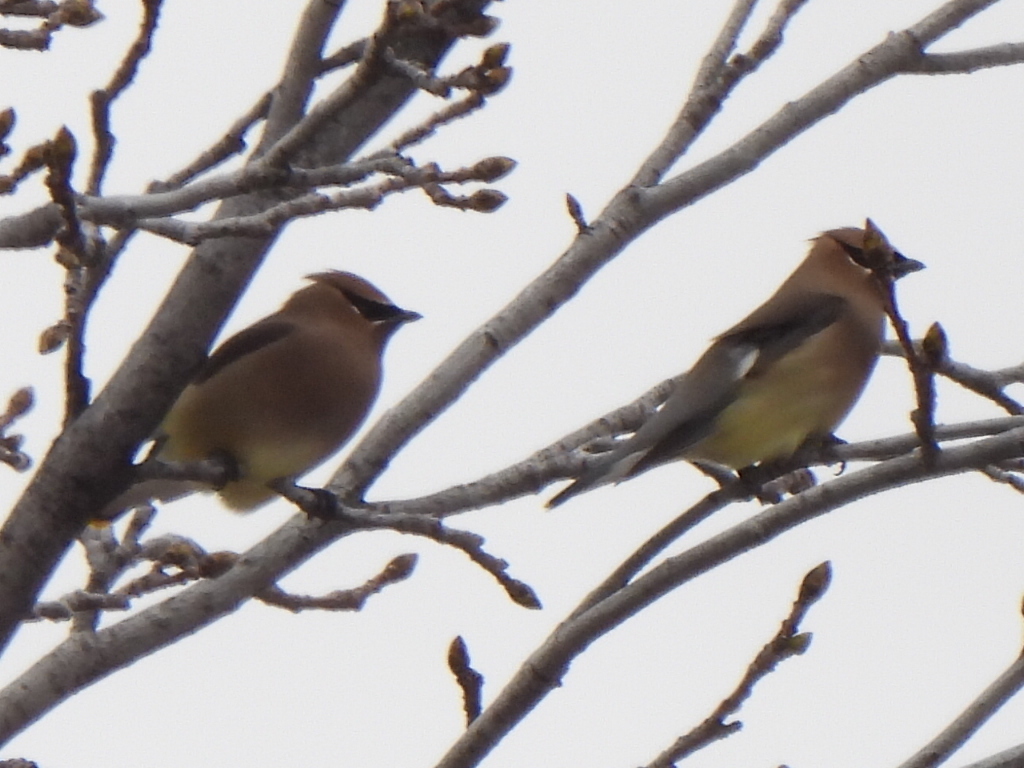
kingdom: Animalia
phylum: Chordata
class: Aves
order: Passeriformes
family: Bombycillidae
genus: Bombycilla
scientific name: Bombycilla cedrorum
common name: Cedar waxwing
